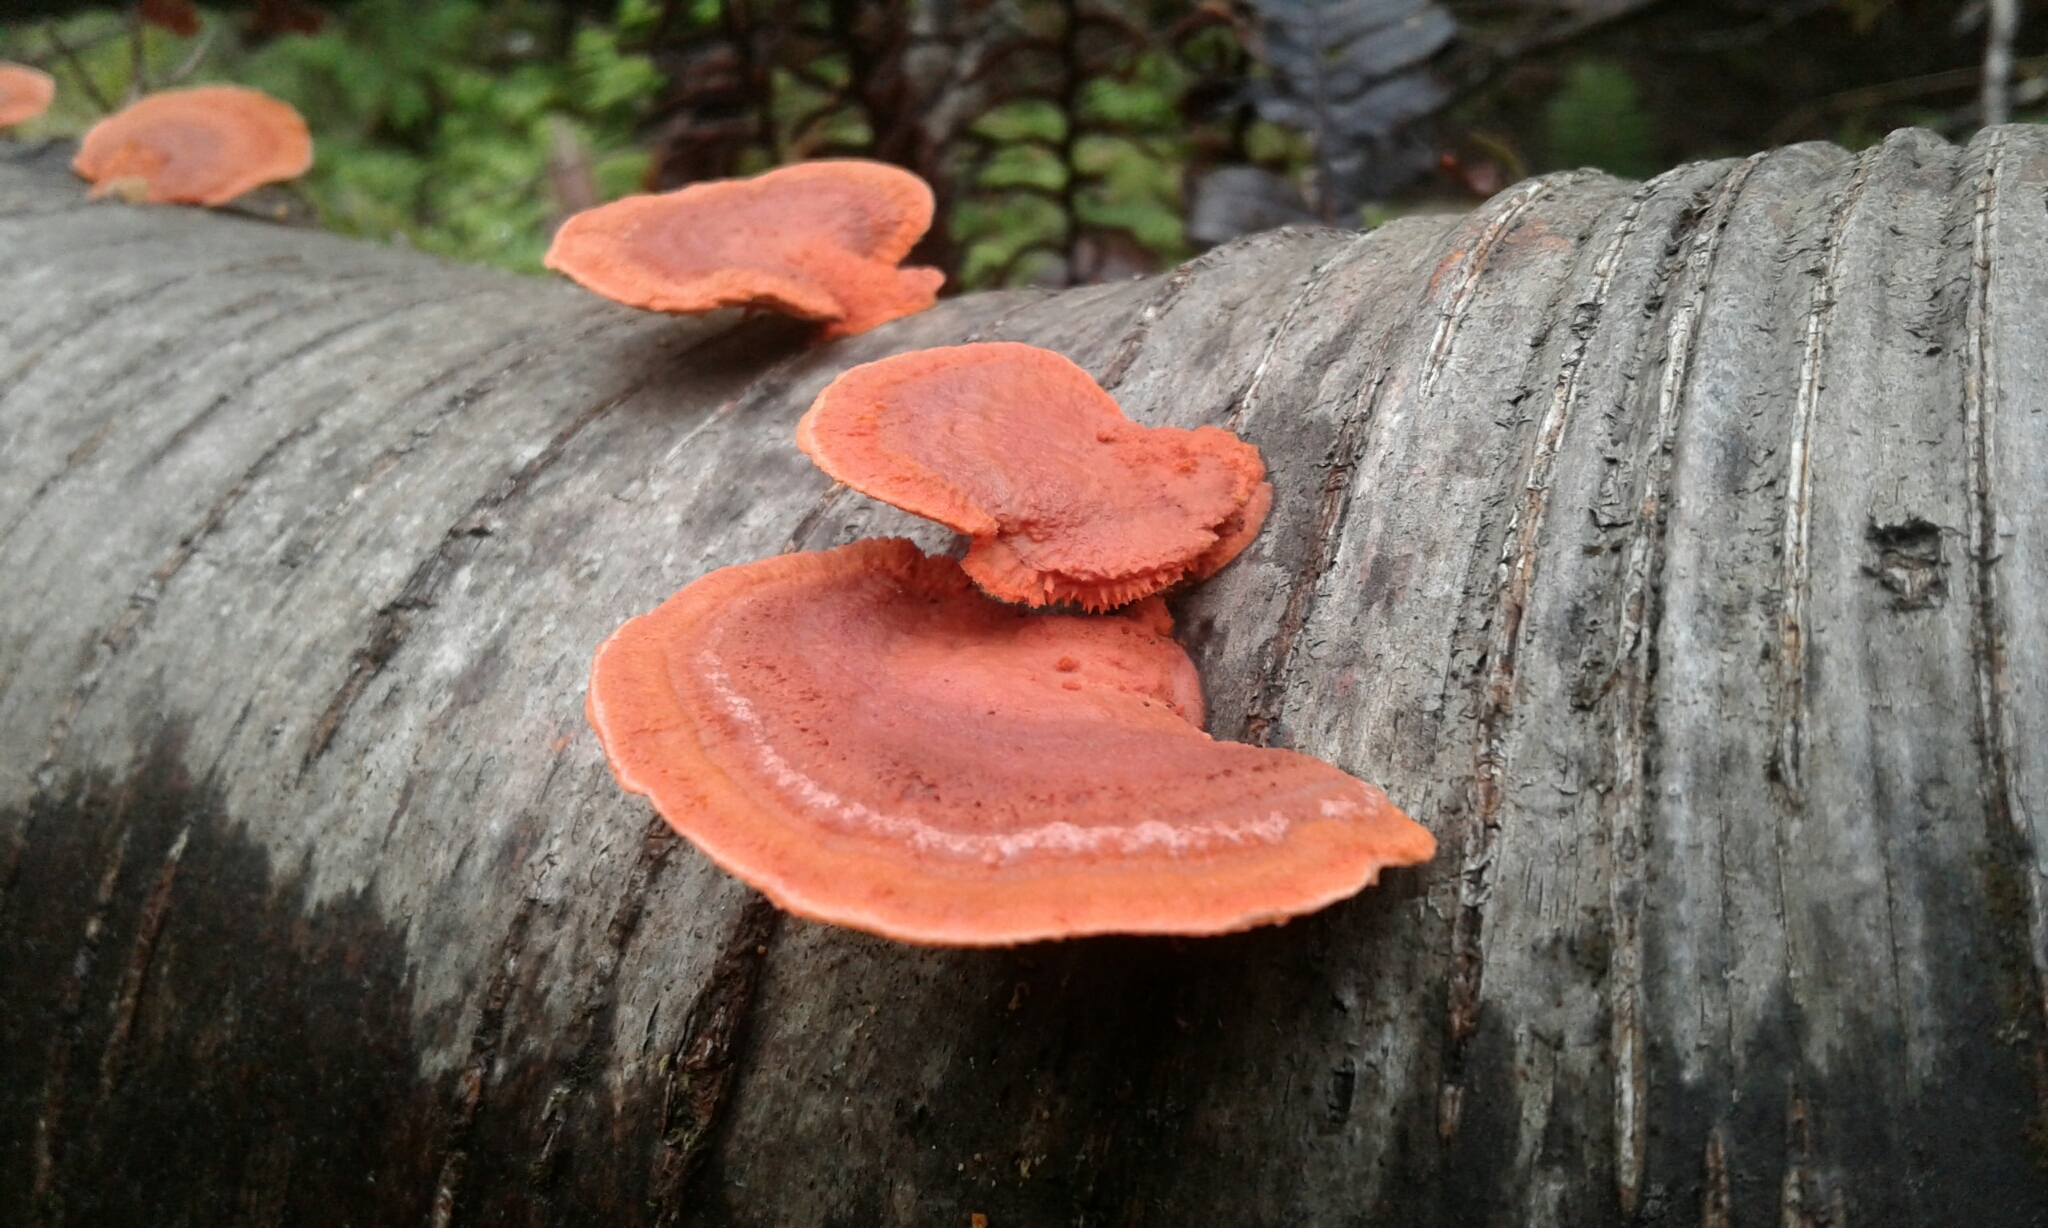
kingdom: Fungi
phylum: Basidiomycota
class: Agaricomycetes
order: Polyporales
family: Polyporaceae
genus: Trametes
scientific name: Trametes coccinea
